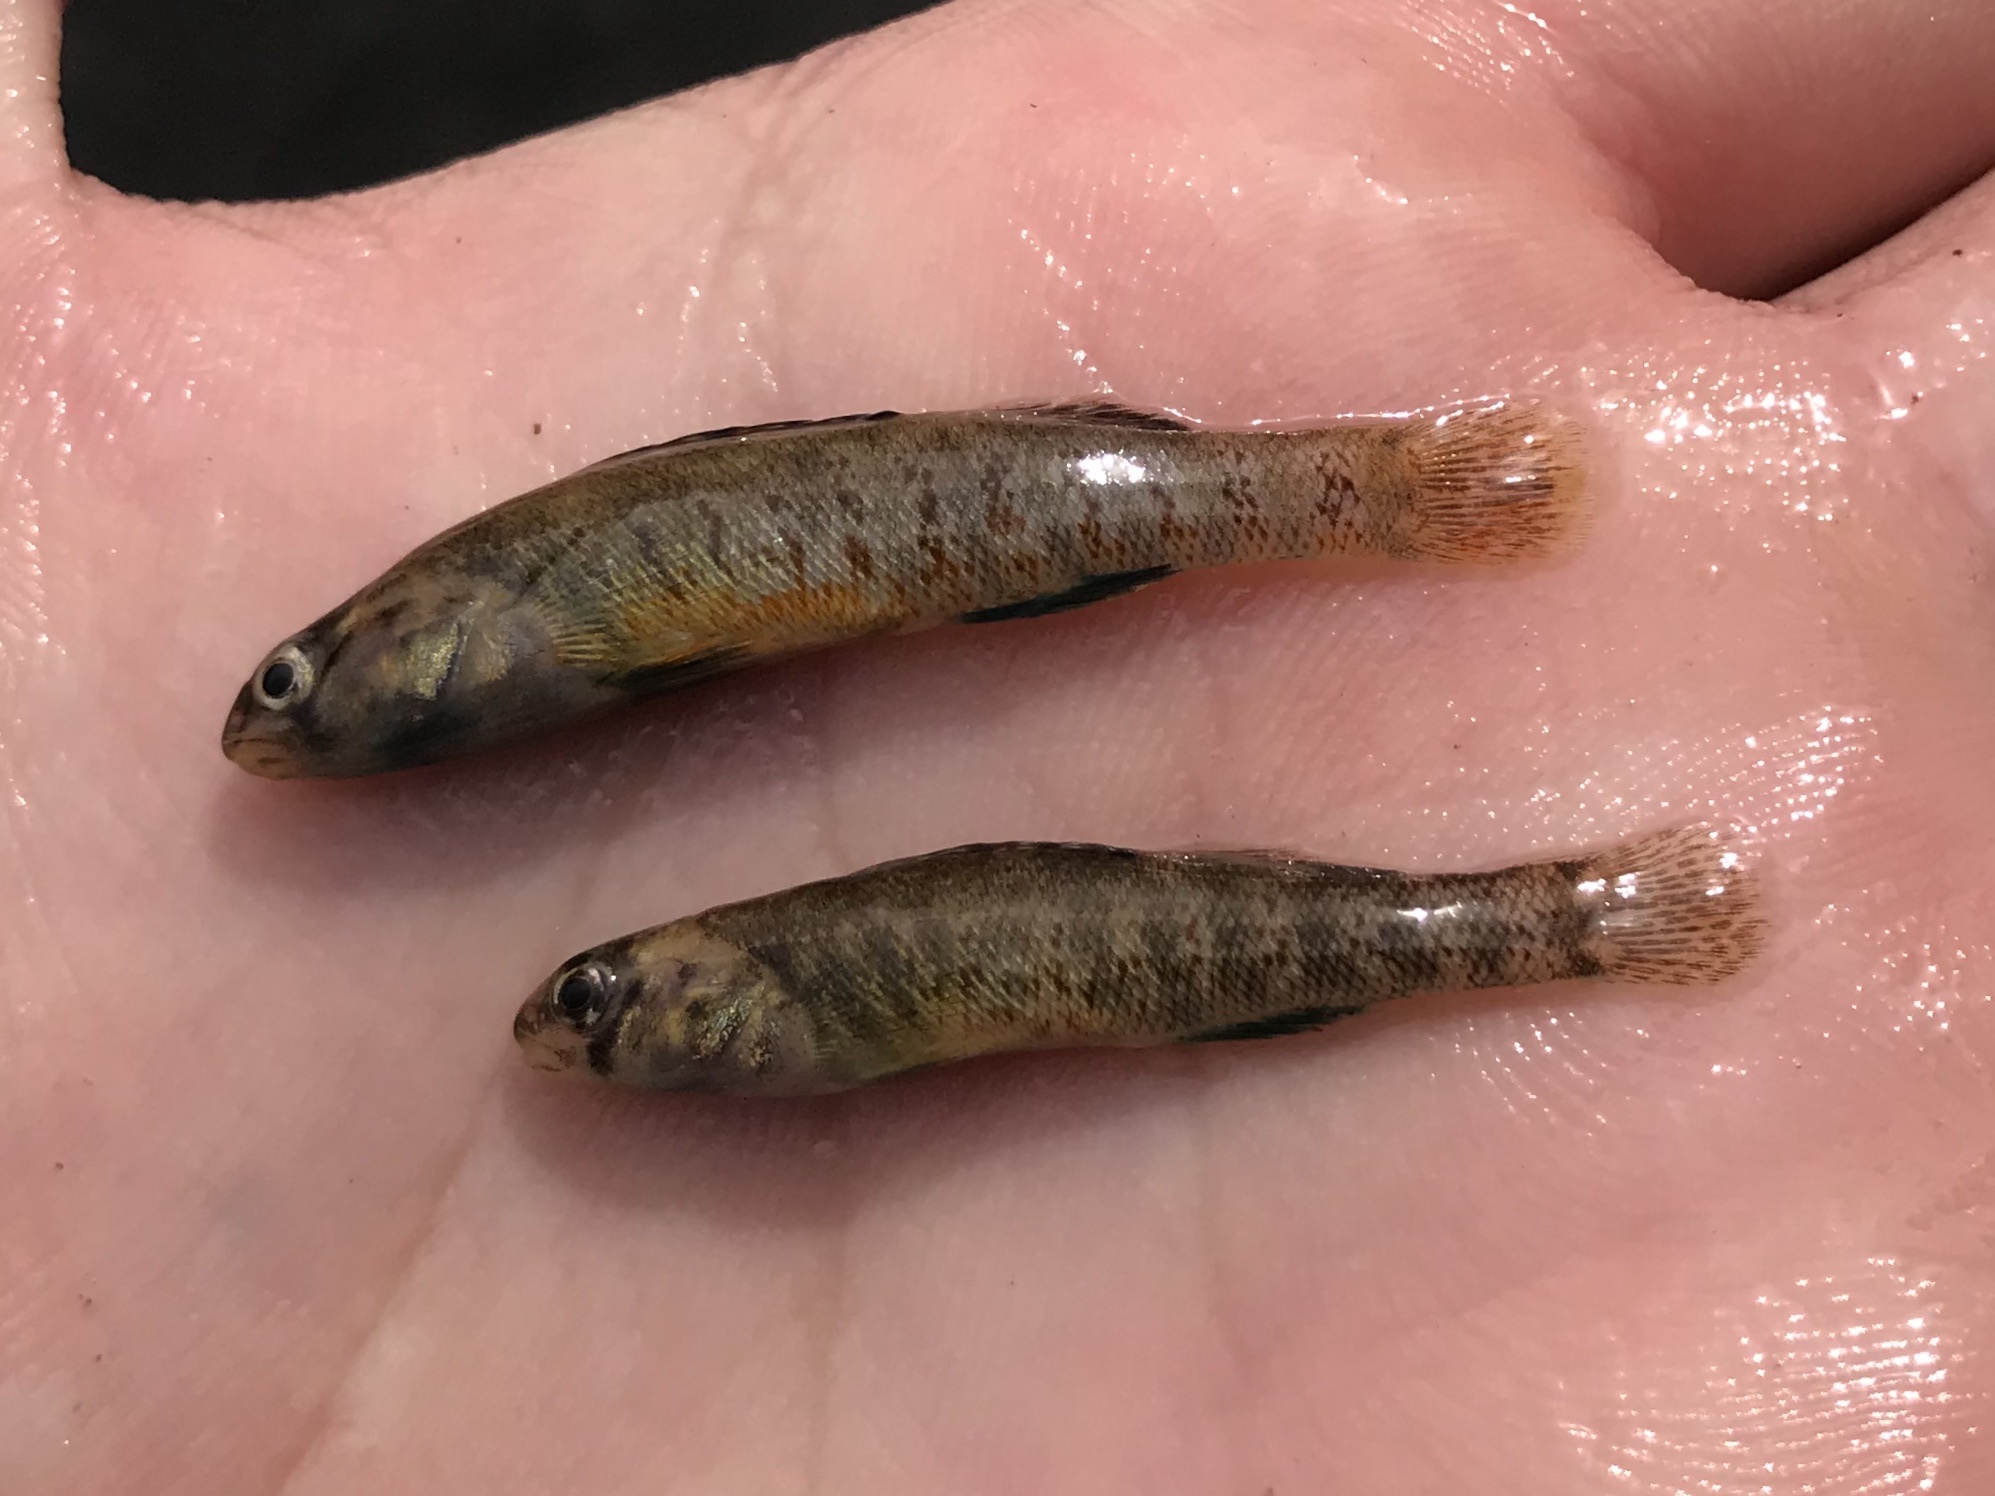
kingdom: Animalia
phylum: Chordata
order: Perciformes
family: Percidae
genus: Etheostoma
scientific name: Etheostoma lepidum
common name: Greenthroat darter
